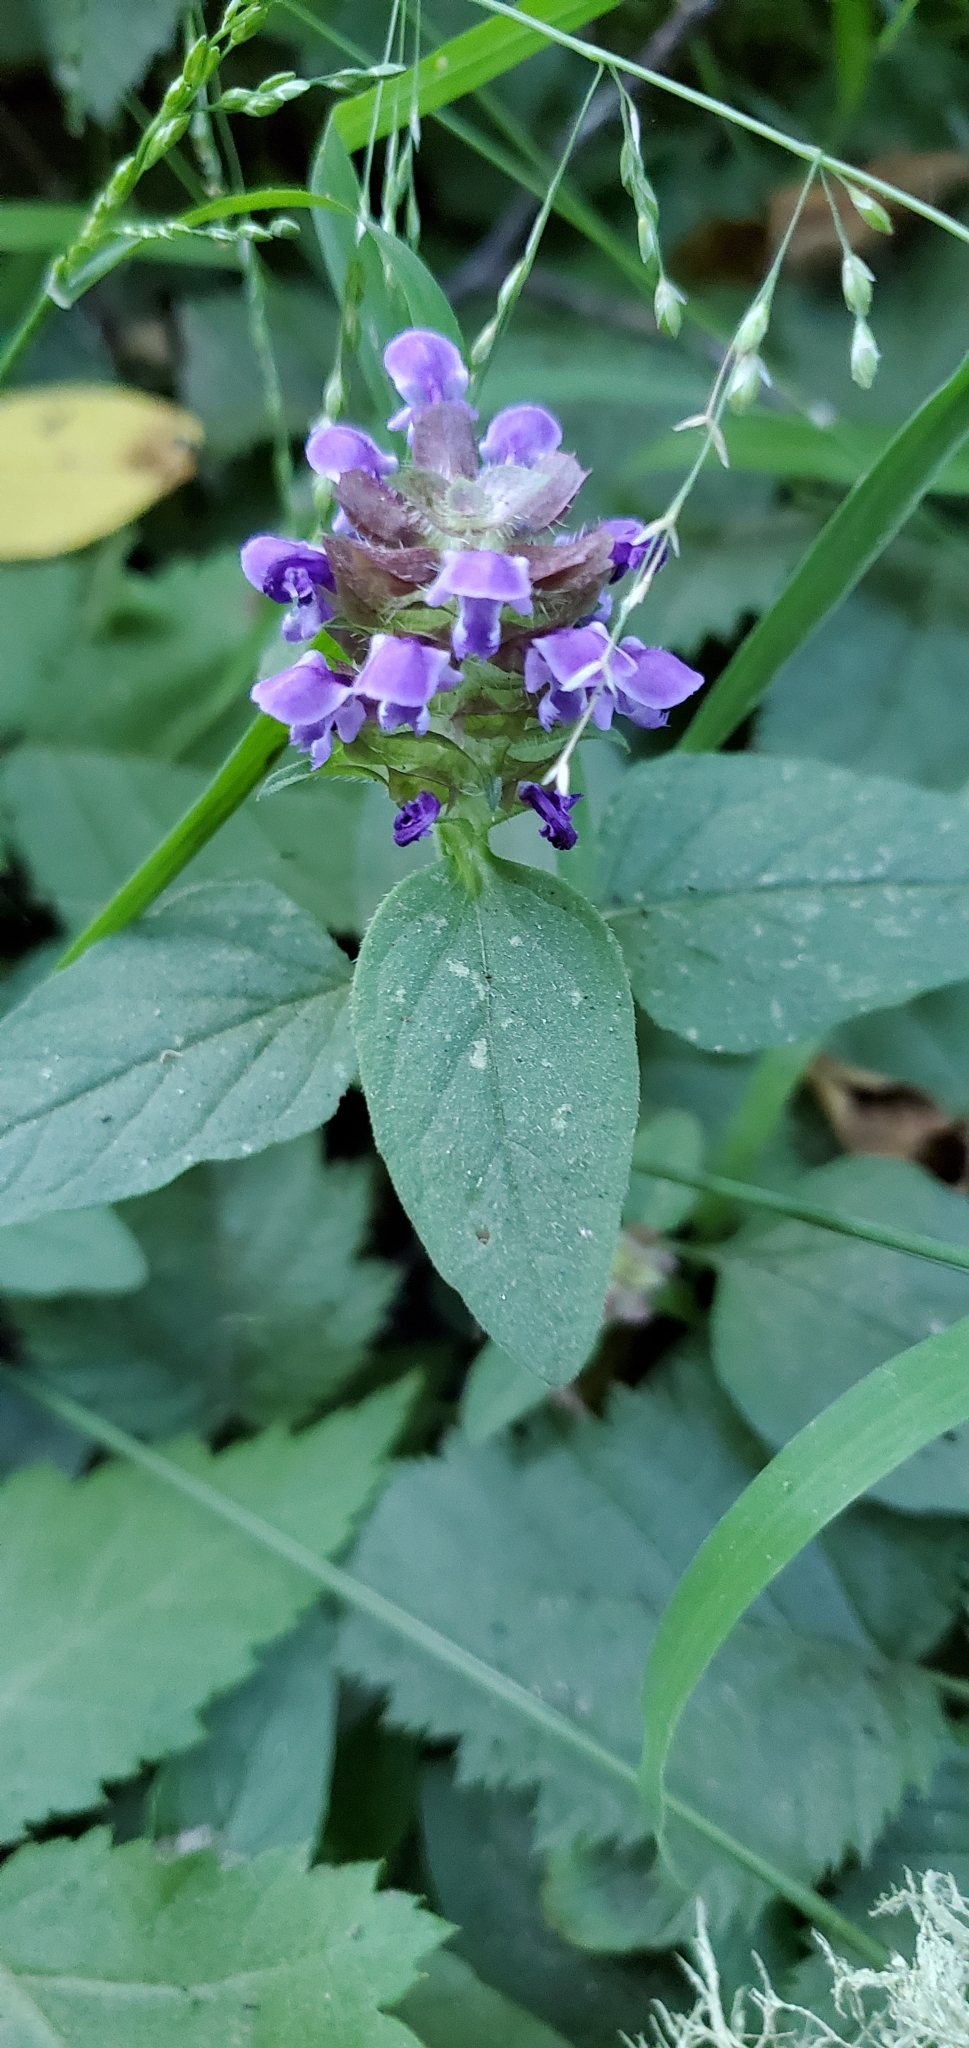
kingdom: Plantae
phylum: Tracheophyta
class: Magnoliopsida
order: Lamiales
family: Lamiaceae
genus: Prunella
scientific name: Prunella vulgaris
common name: Heal-all
